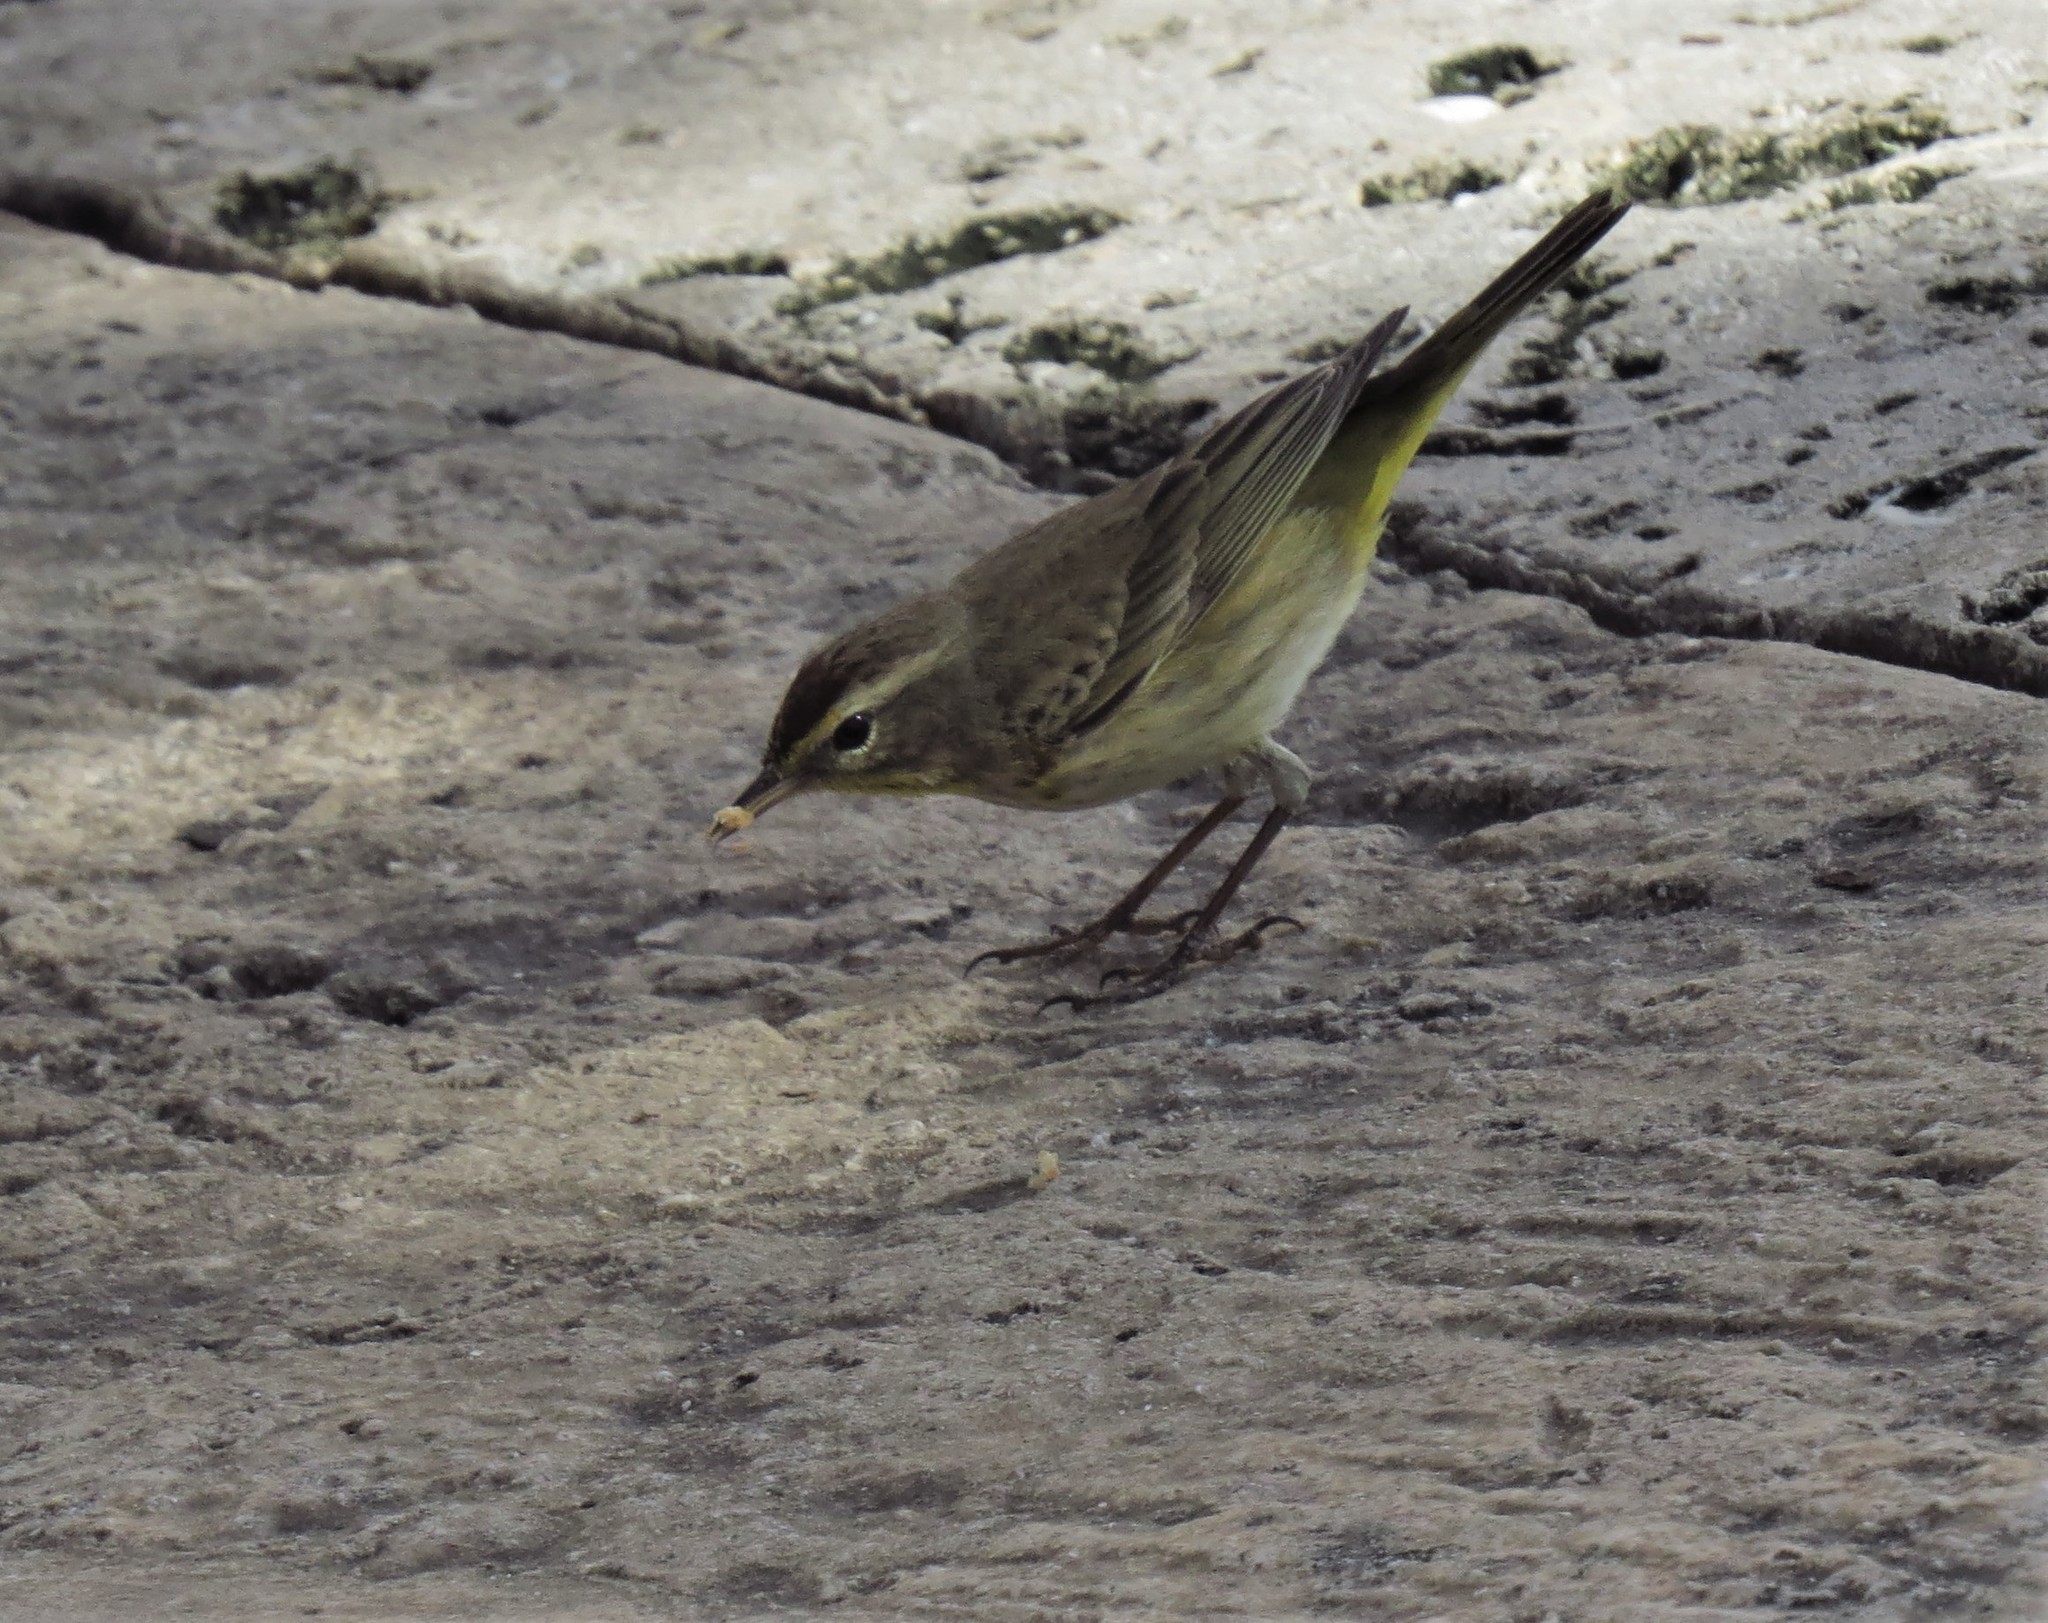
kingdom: Animalia
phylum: Chordata
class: Aves
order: Passeriformes
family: Parulidae
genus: Setophaga
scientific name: Setophaga palmarum
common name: Palm warbler
